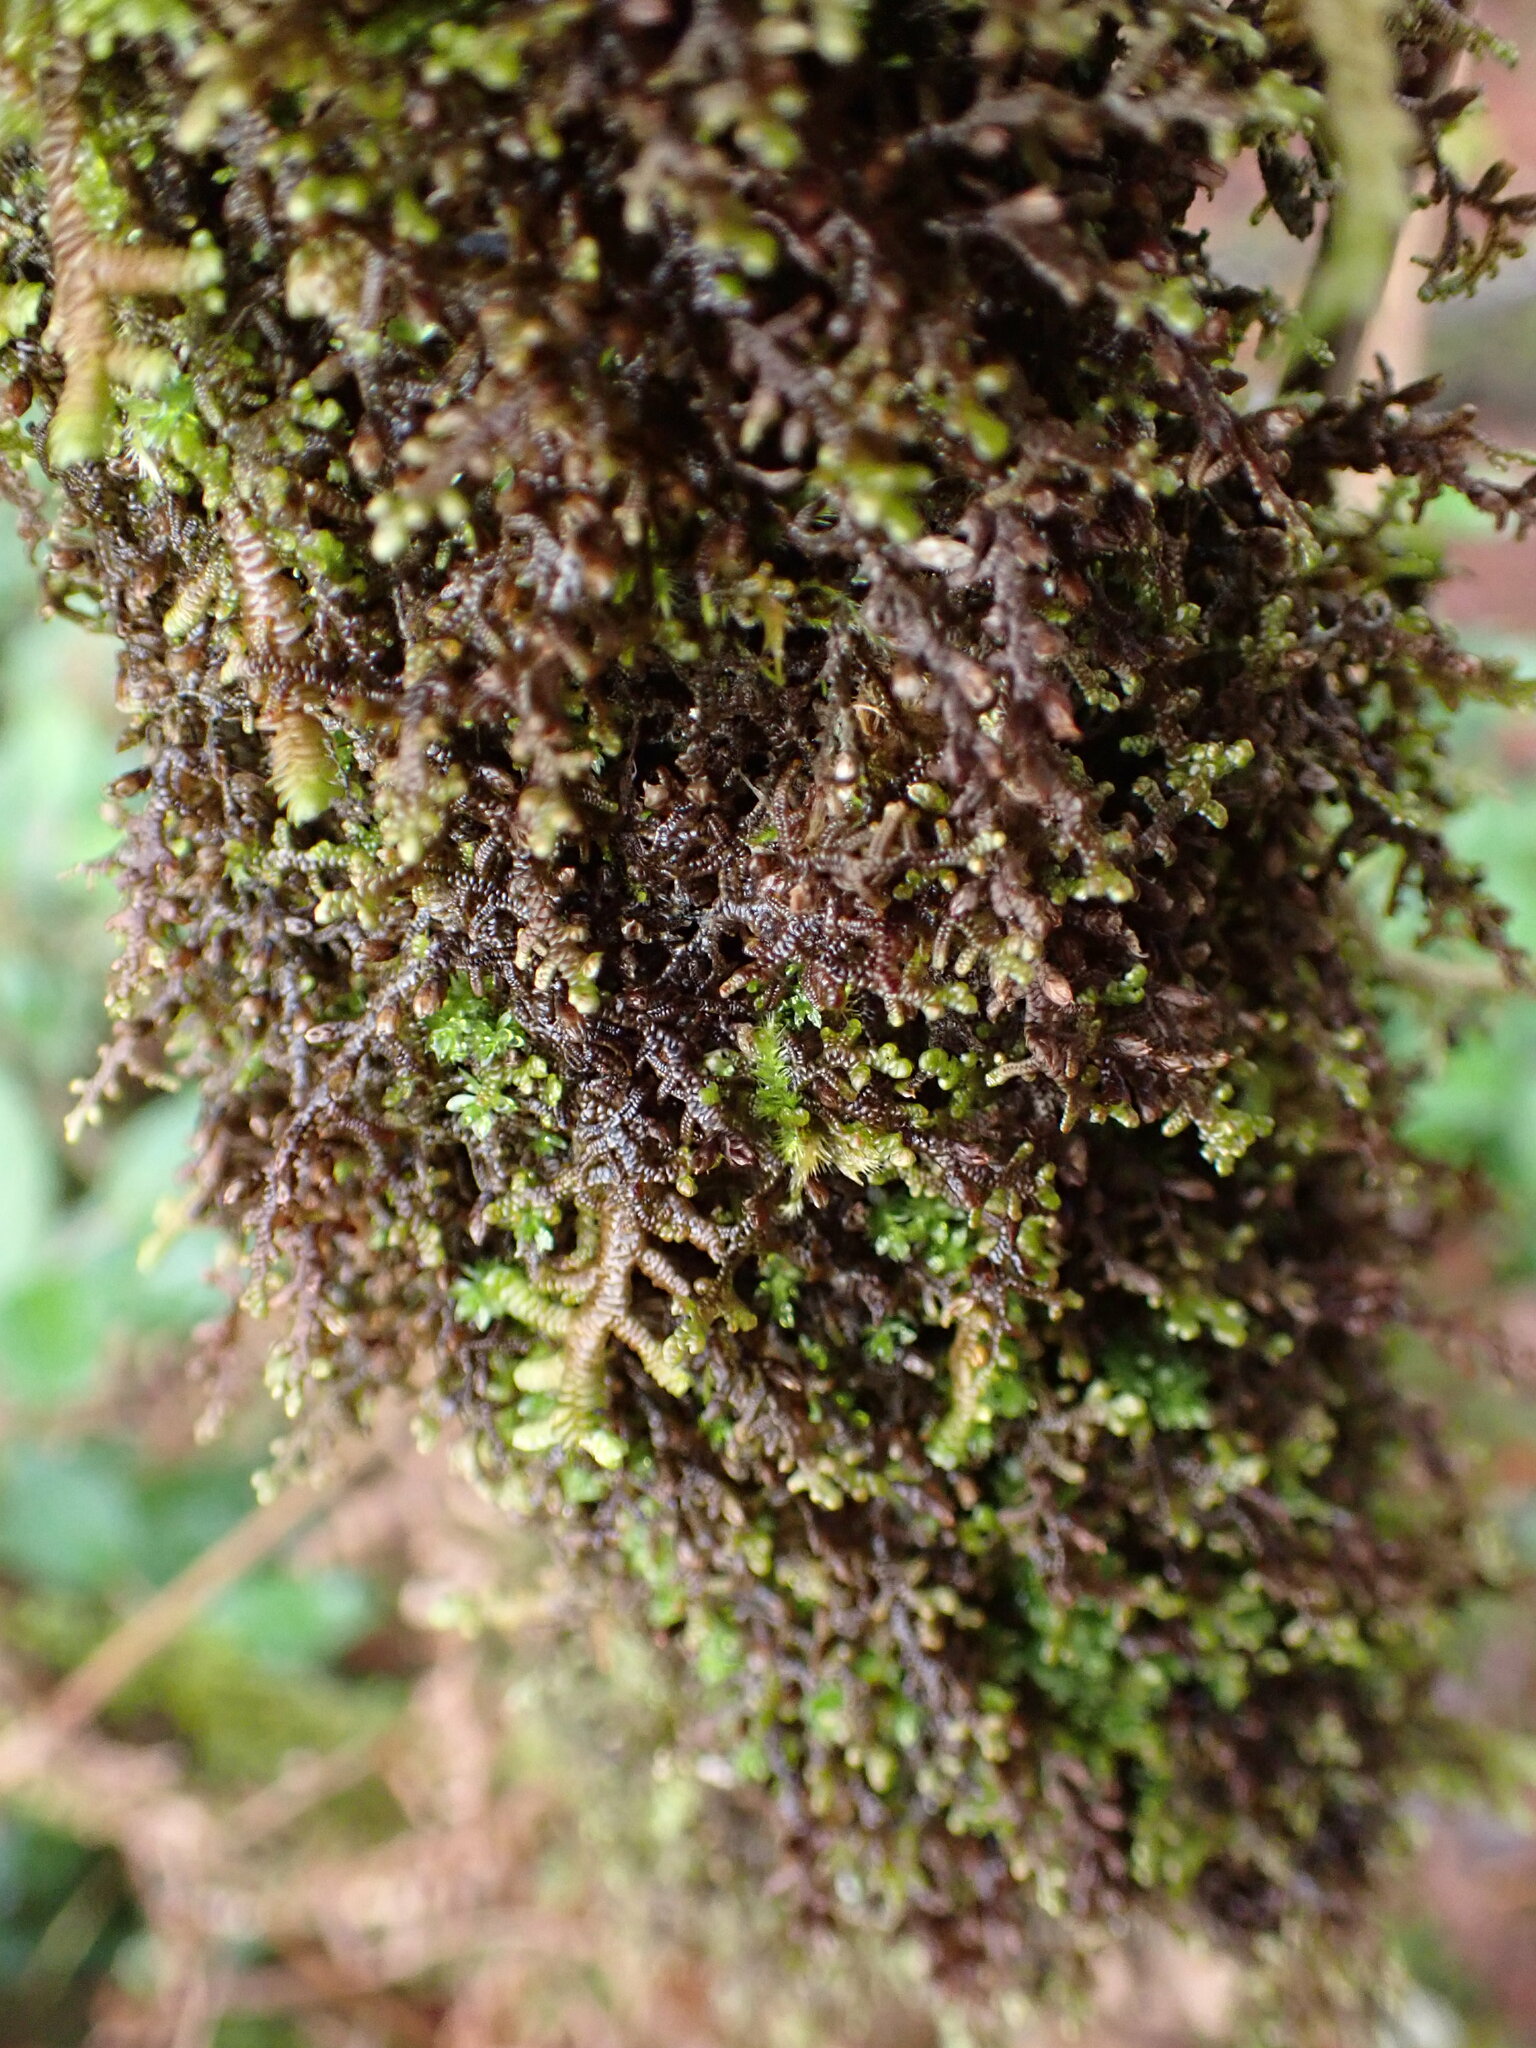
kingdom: Plantae
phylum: Marchantiophyta
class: Jungermanniopsida
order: Porellales
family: Frullaniaceae
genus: Frullania
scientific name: Frullania nisquallensis
